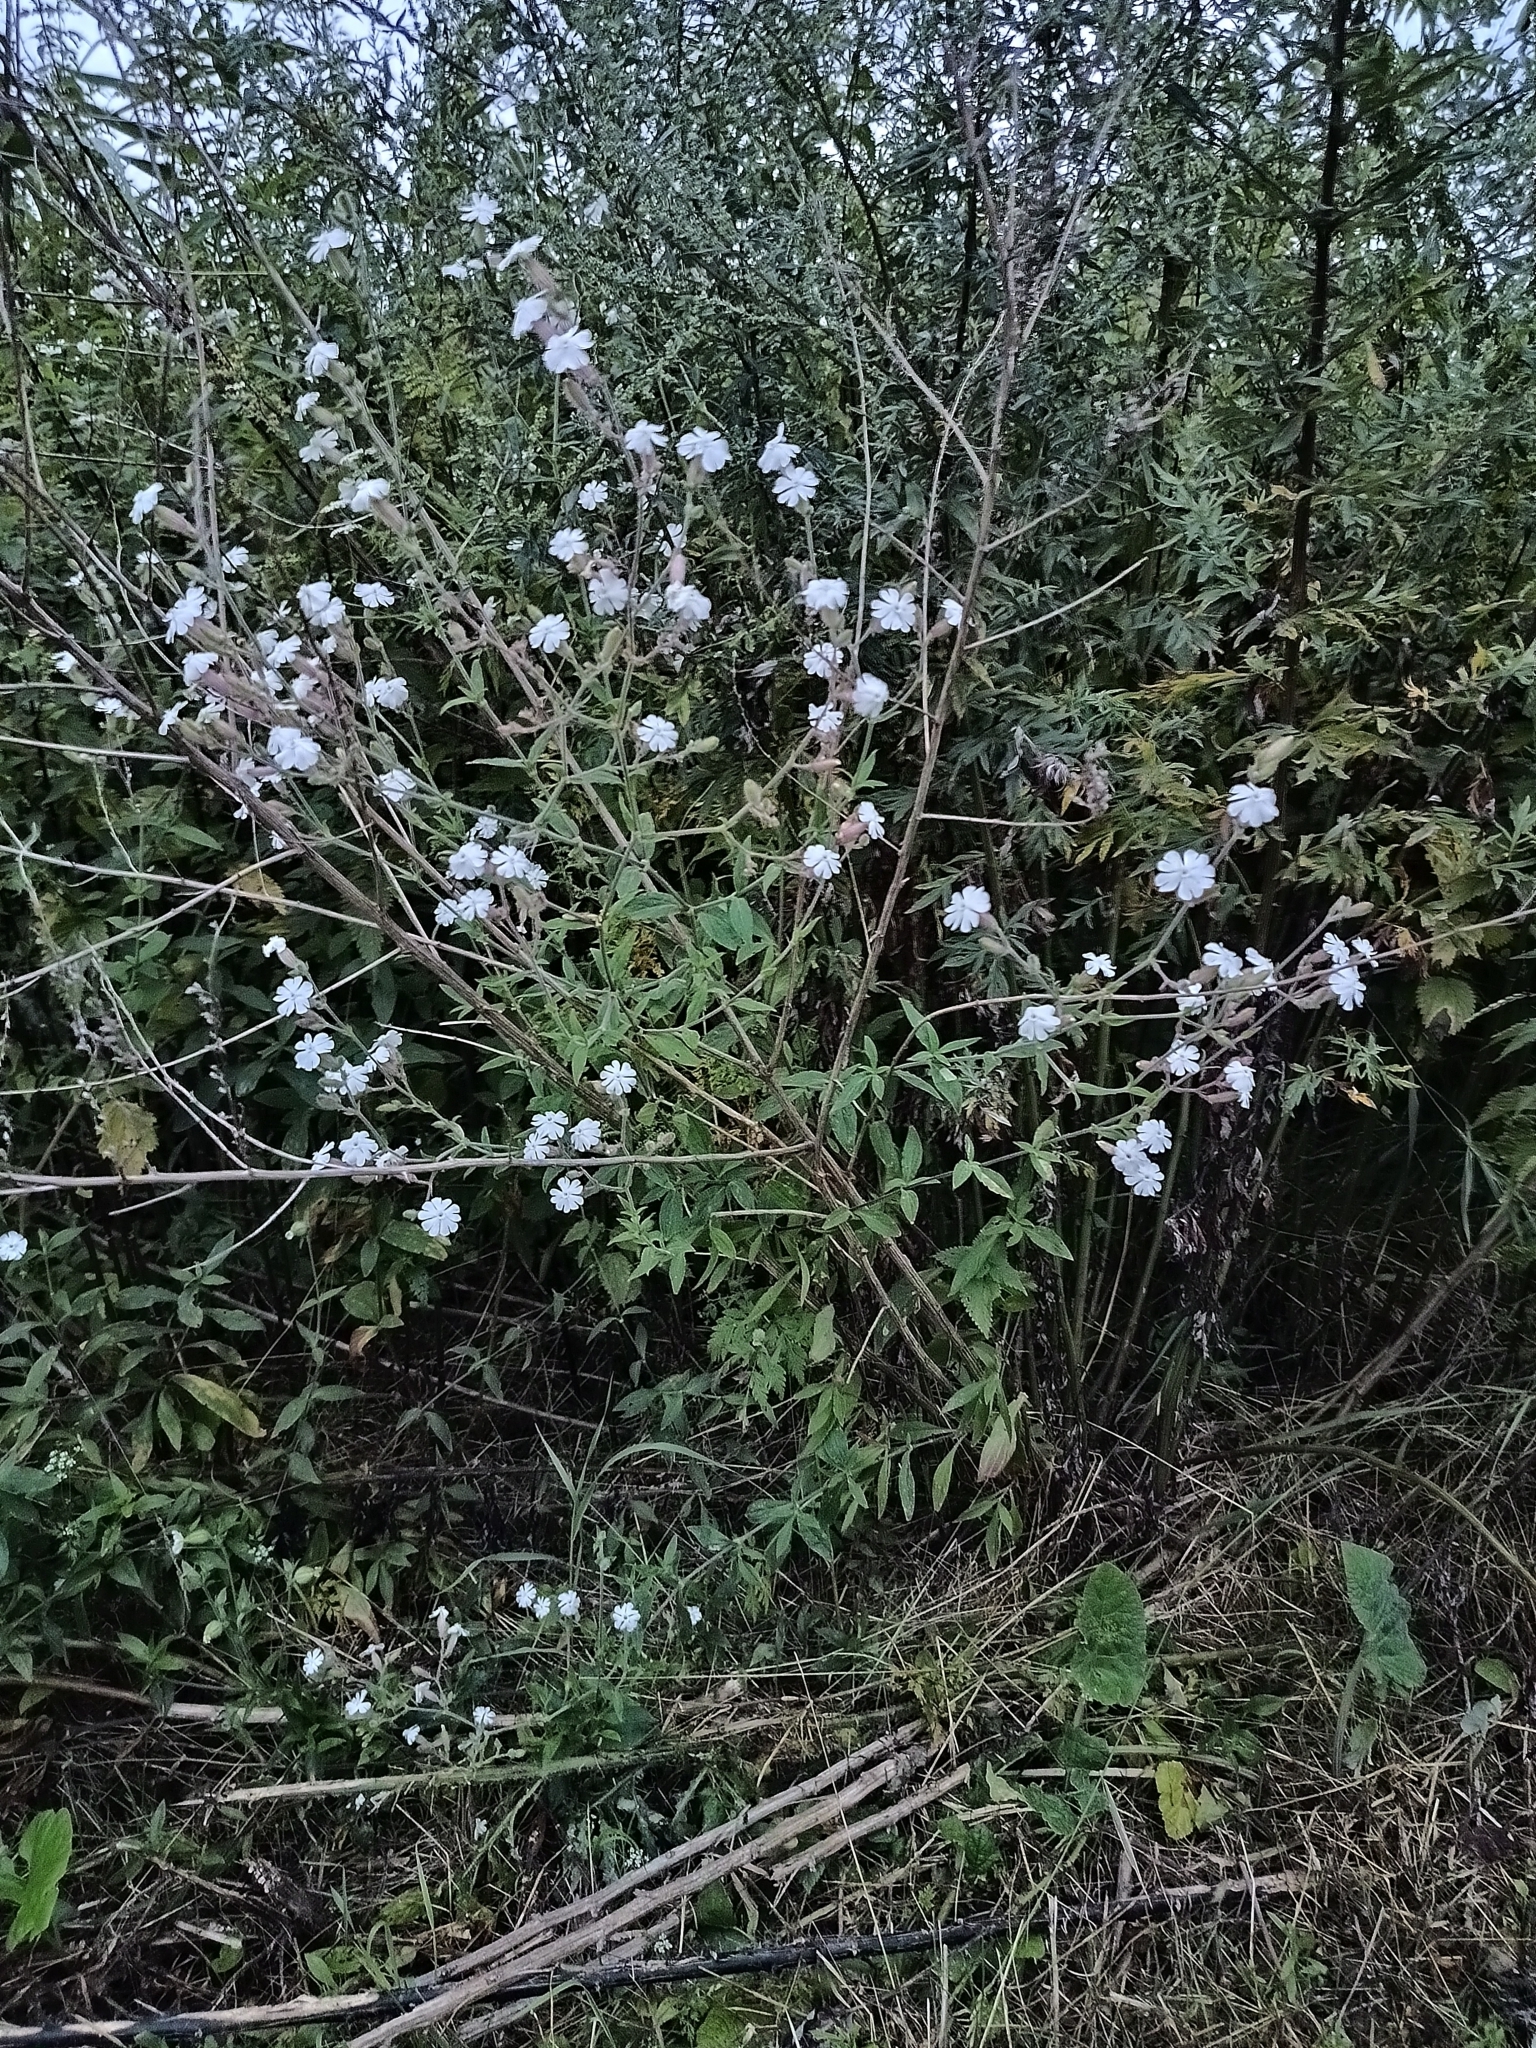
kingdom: Plantae
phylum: Tracheophyta
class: Magnoliopsida
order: Caryophyllales
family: Caryophyllaceae
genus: Silene
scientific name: Silene latifolia
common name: White campion
